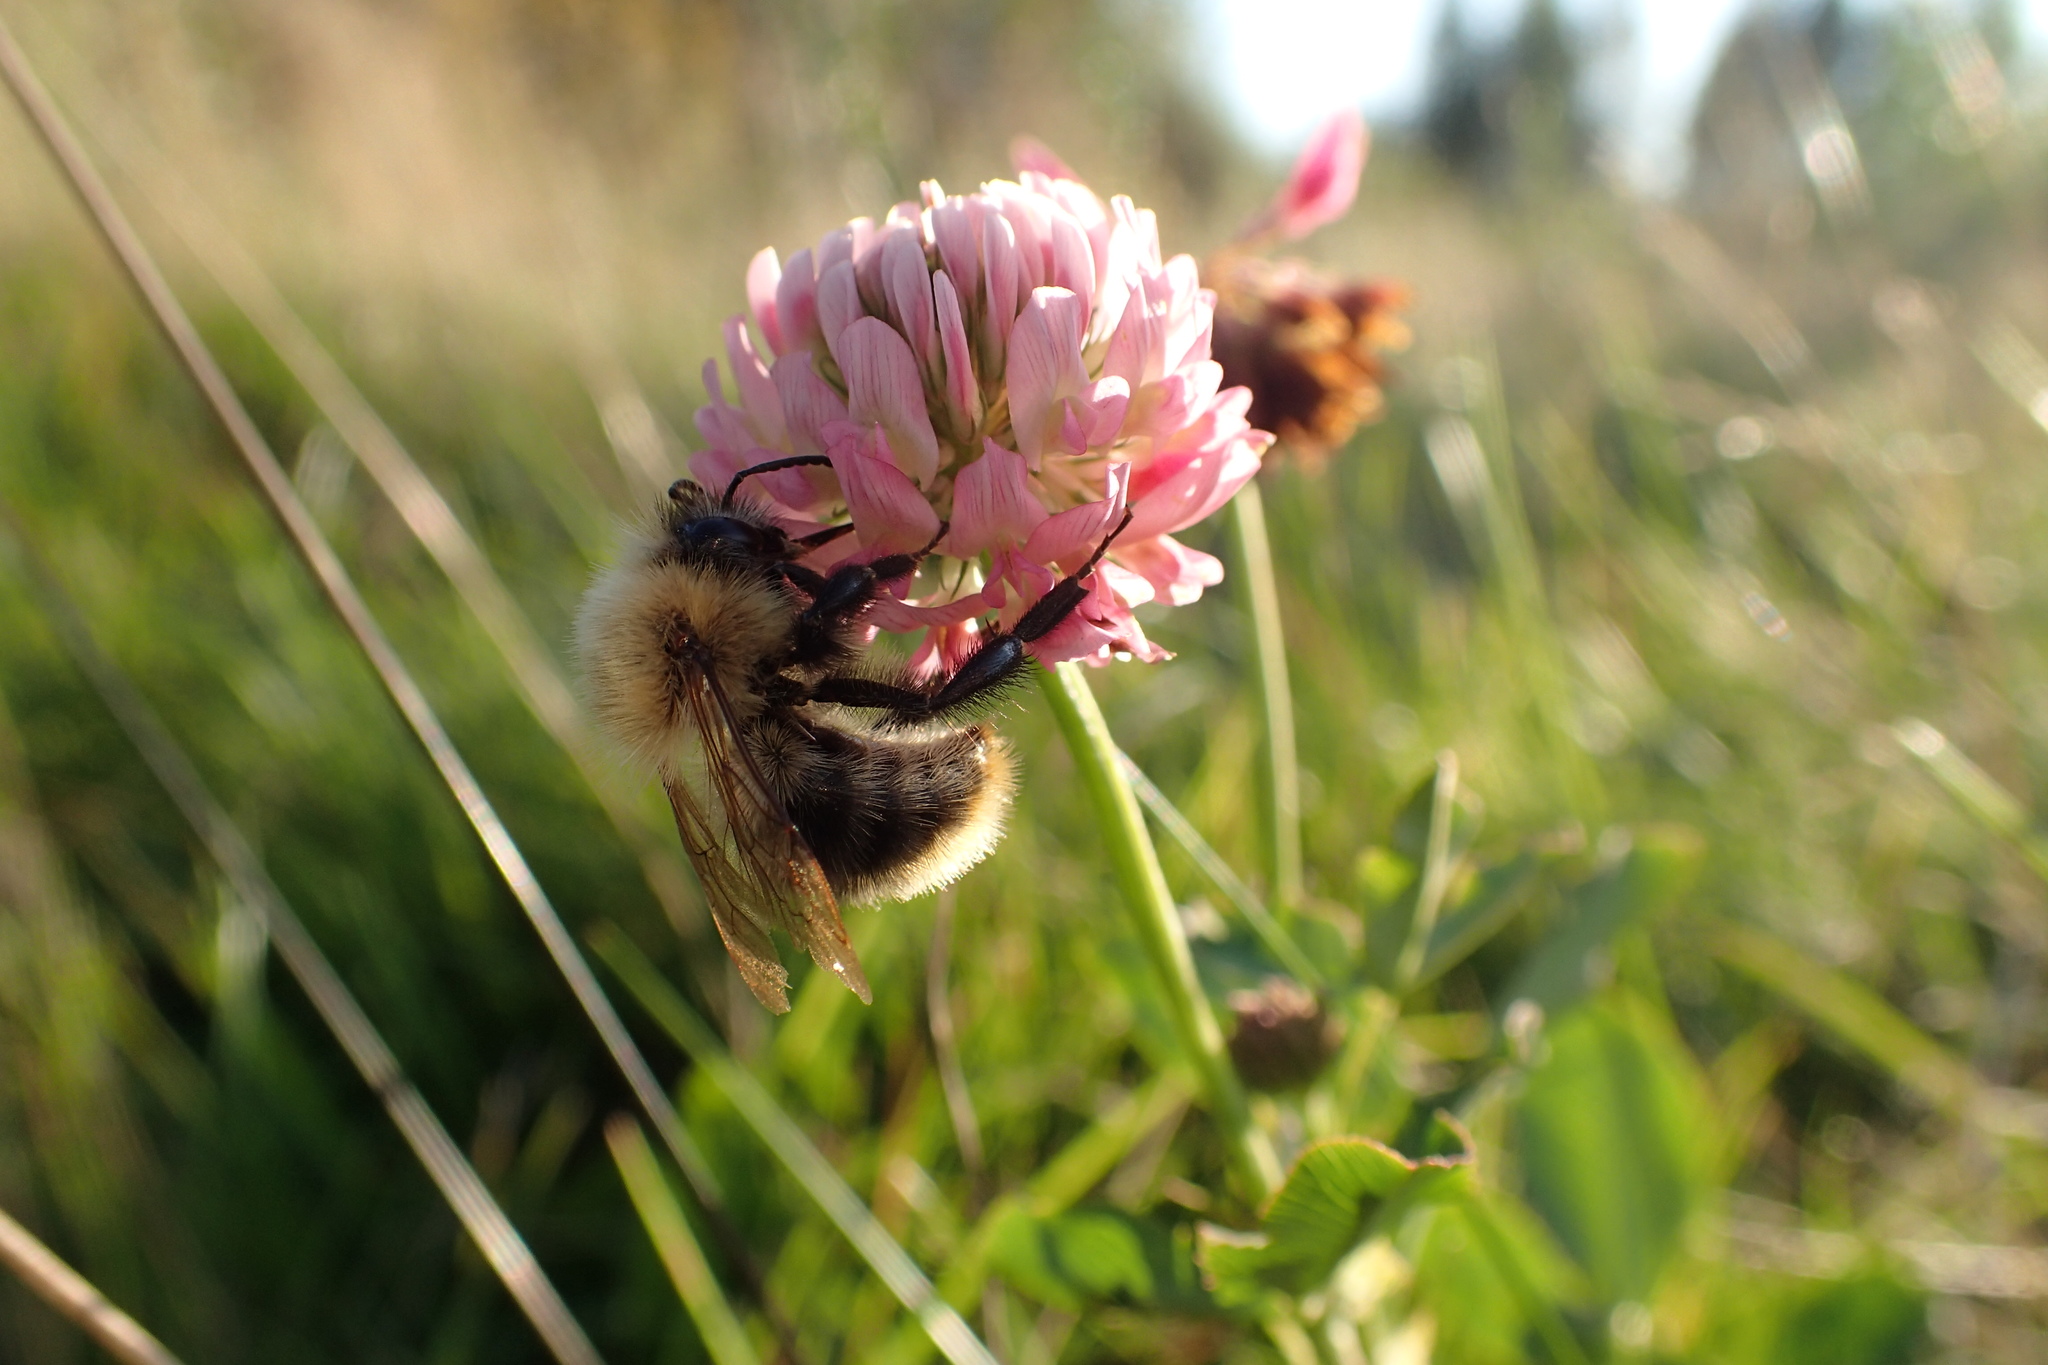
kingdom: Animalia
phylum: Arthropoda
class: Insecta
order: Hymenoptera
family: Apidae
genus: Bombus
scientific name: Bombus pascuorum
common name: Common carder bee
